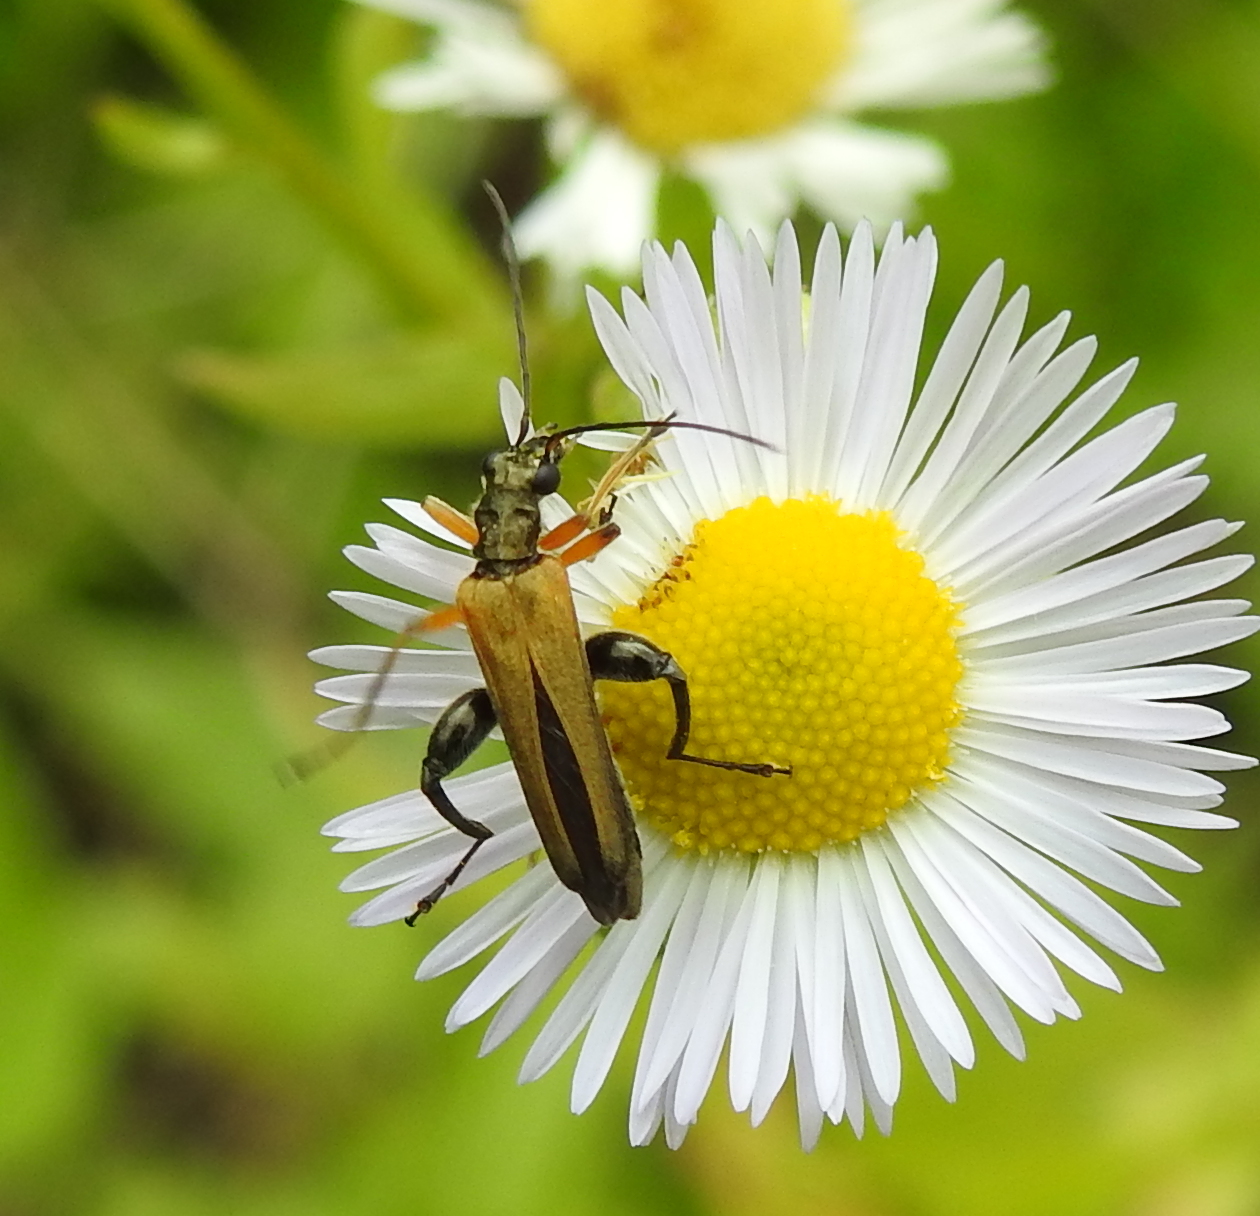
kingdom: Animalia
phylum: Arthropoda
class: Insecta
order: Coleoptera
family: Oedemeridae
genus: Oedemera
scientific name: Oedemera podagrariae
